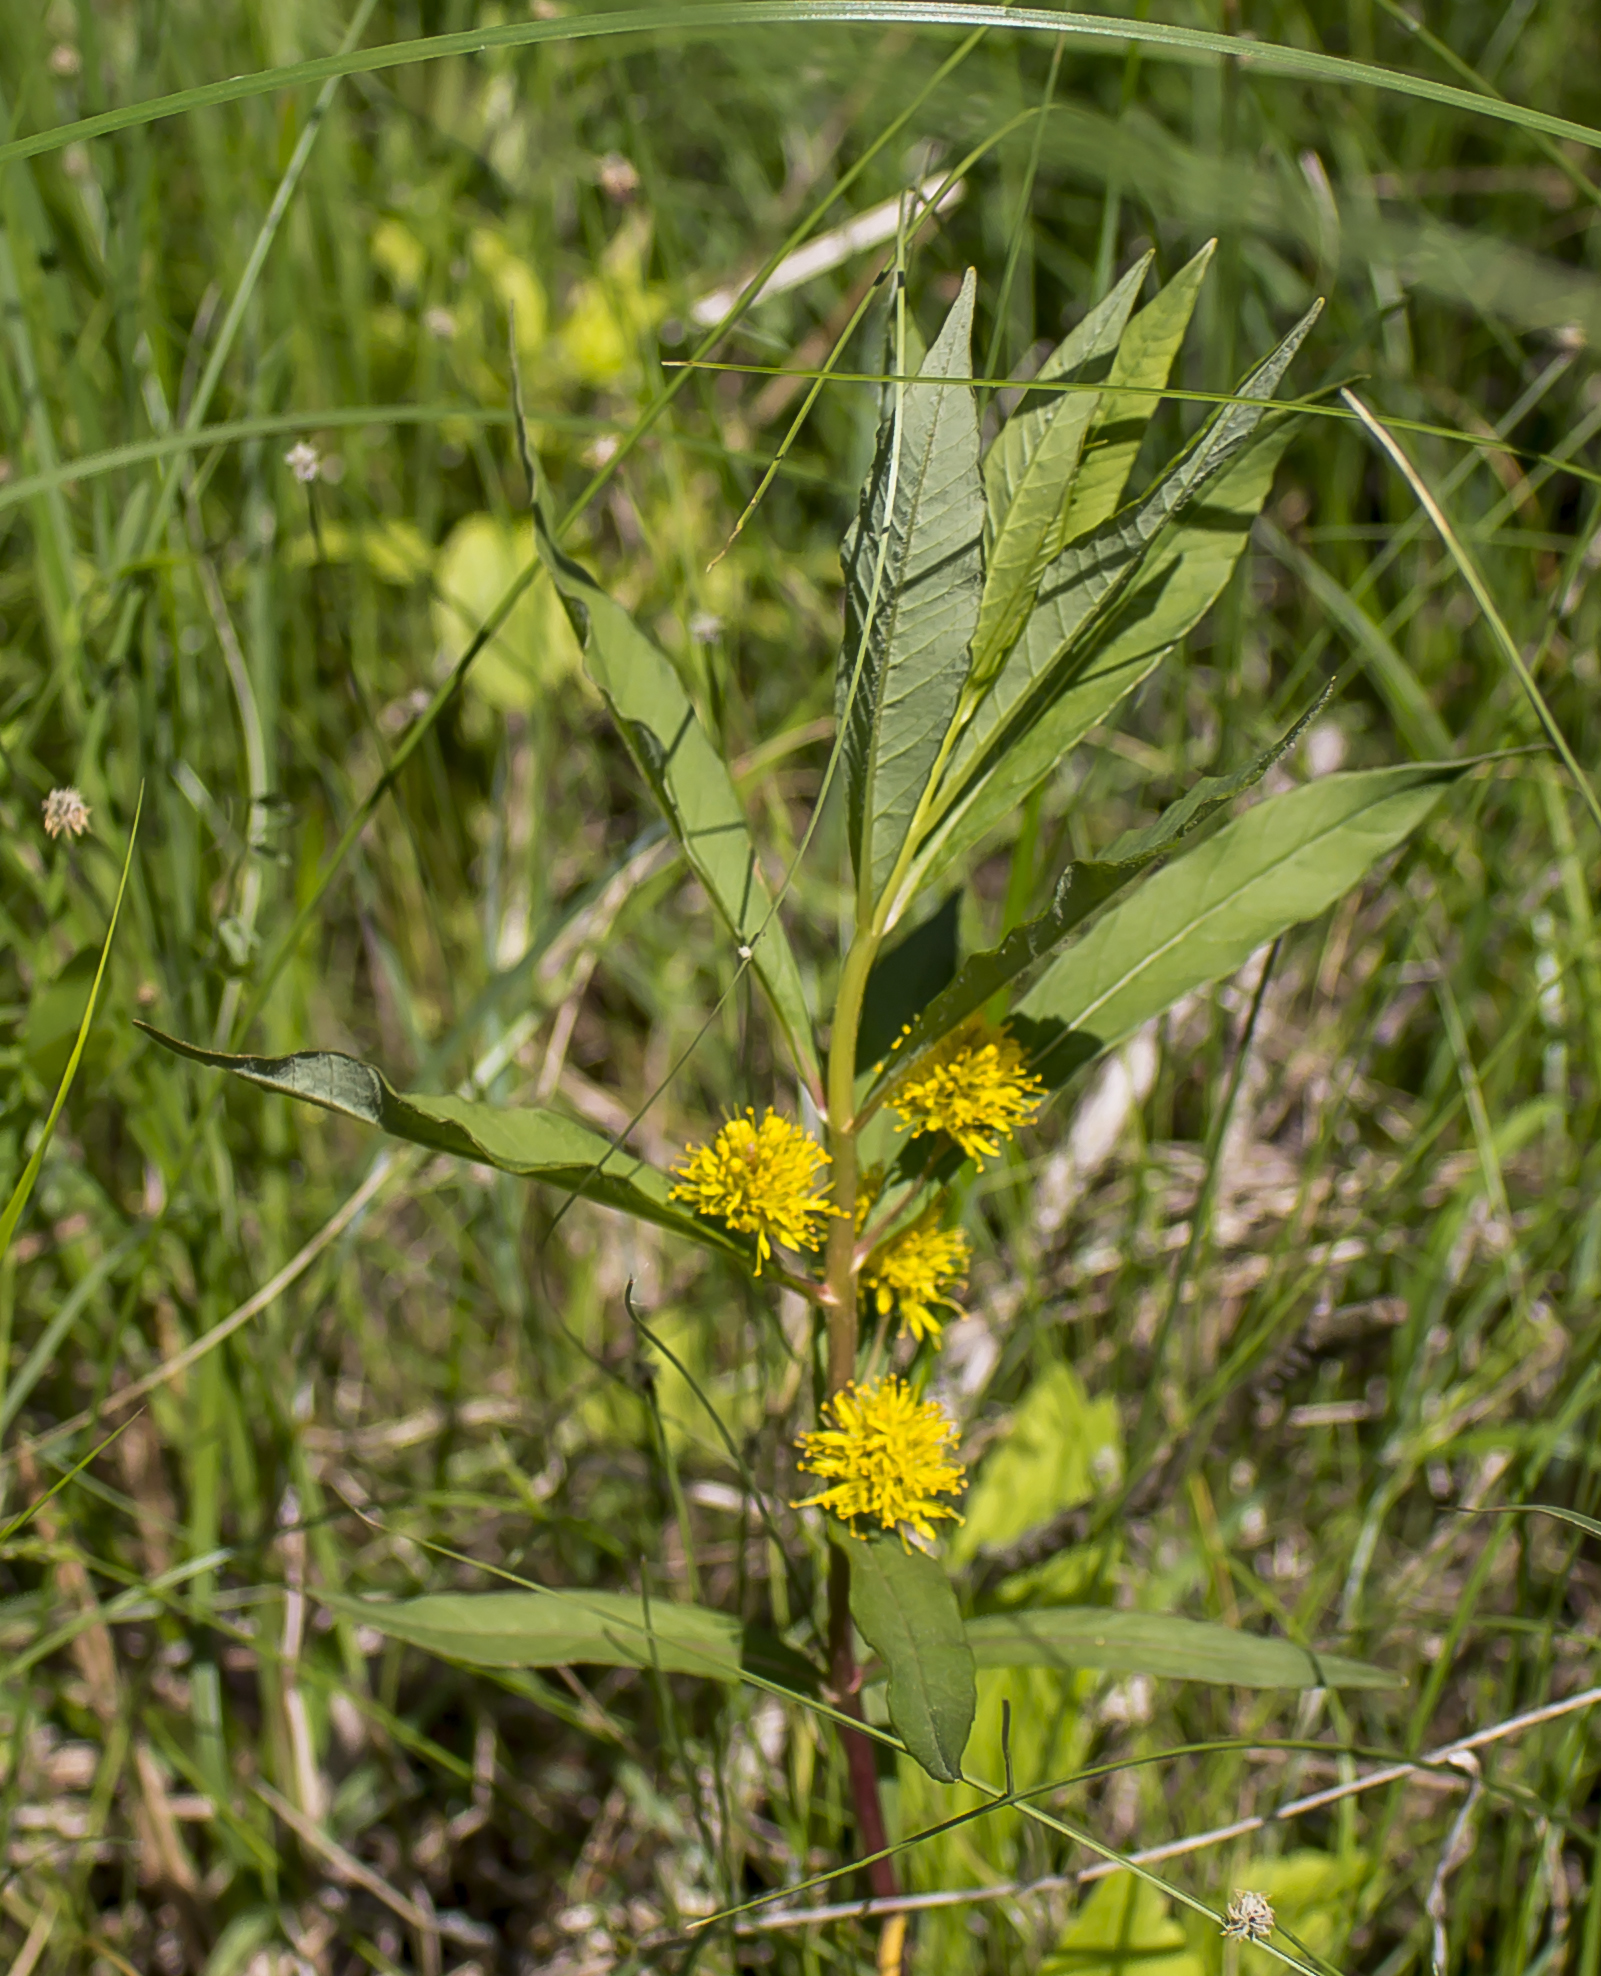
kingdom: Plantae
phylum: Tracheophyta
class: Magnoliopsida
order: Ericales
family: Primulaceae
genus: Lysimachia
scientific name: Lysimachia thyrsiflora
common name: Tufted loosestrife
